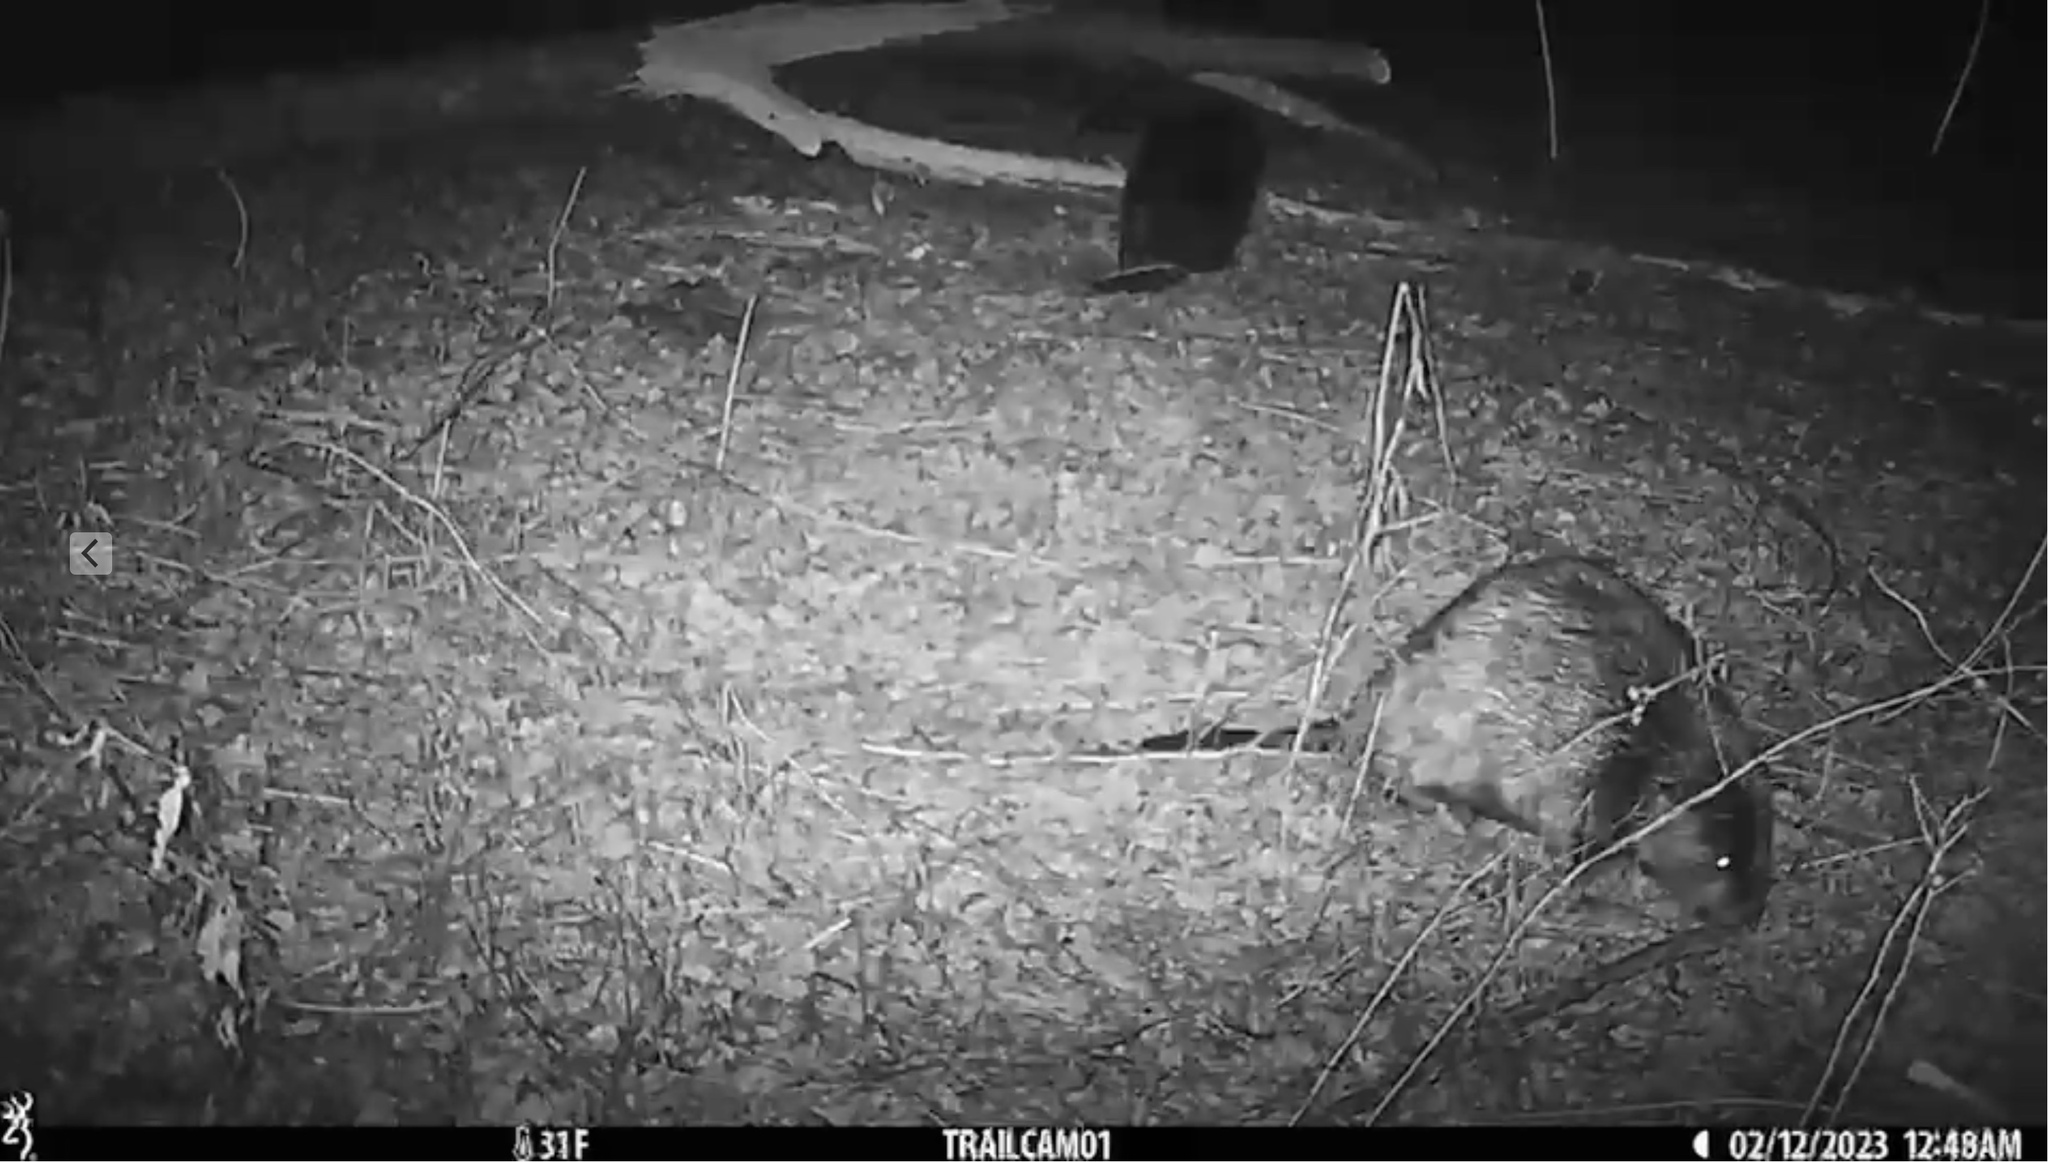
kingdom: Animalia
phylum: Chordata
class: Mammalia
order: Rodentia
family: Castoridae
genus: Castor
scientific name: Castor canadensis
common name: American beaver
